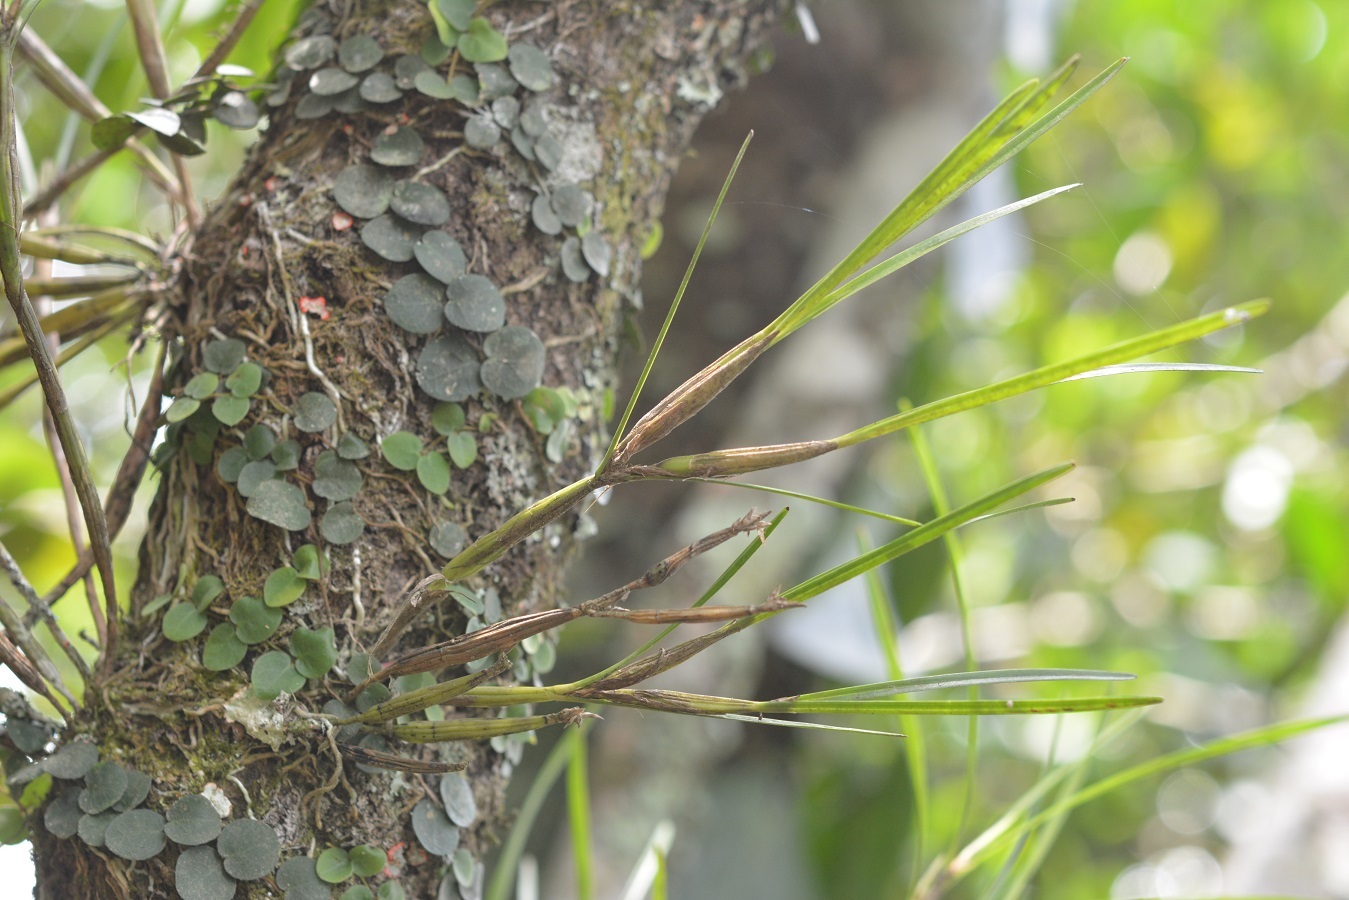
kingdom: Plantae
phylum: Tracheophyta
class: Liliopsida
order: Asparagales
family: Orchidaceae
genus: Scaphyglottis
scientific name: Scaphyglottis fasciculata
